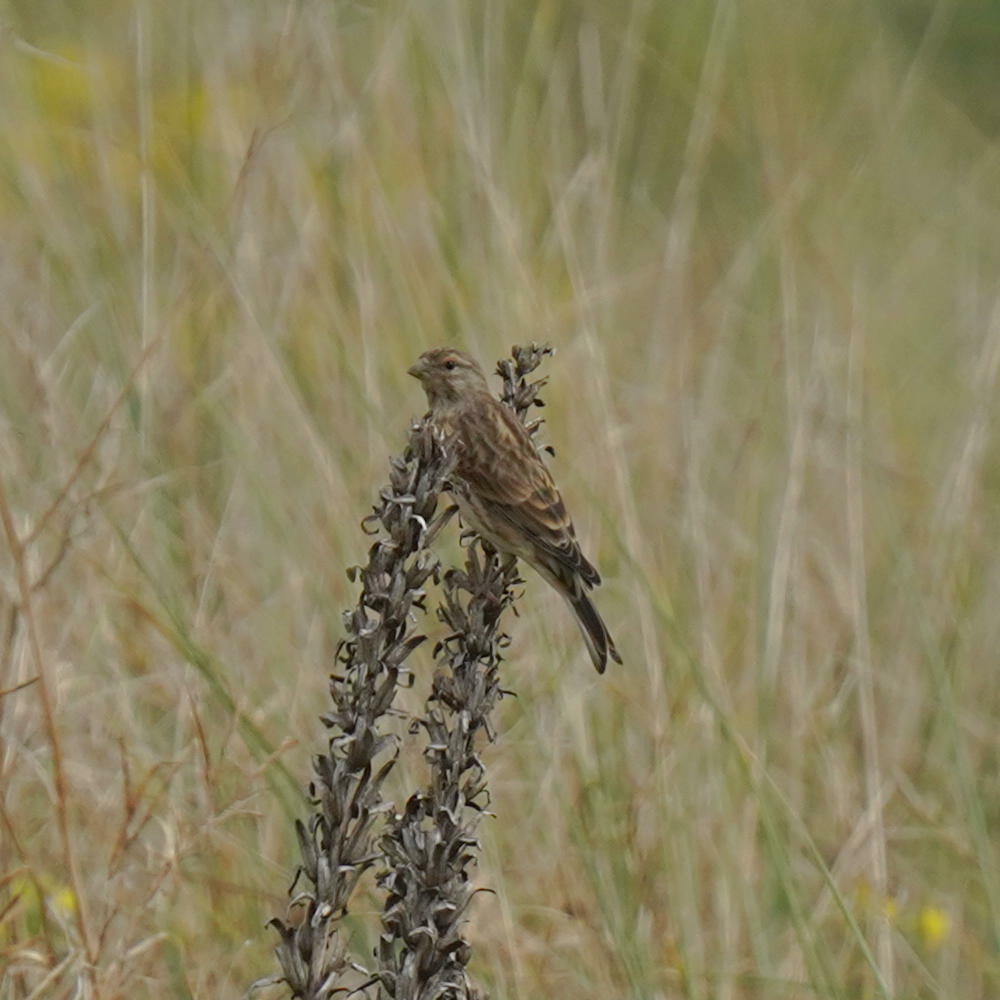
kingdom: Animalia
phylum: Chordata
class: Aves
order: Passeriformes
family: Fringillidae
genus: Linaria
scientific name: Linaria cannabina
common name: Common linnet
